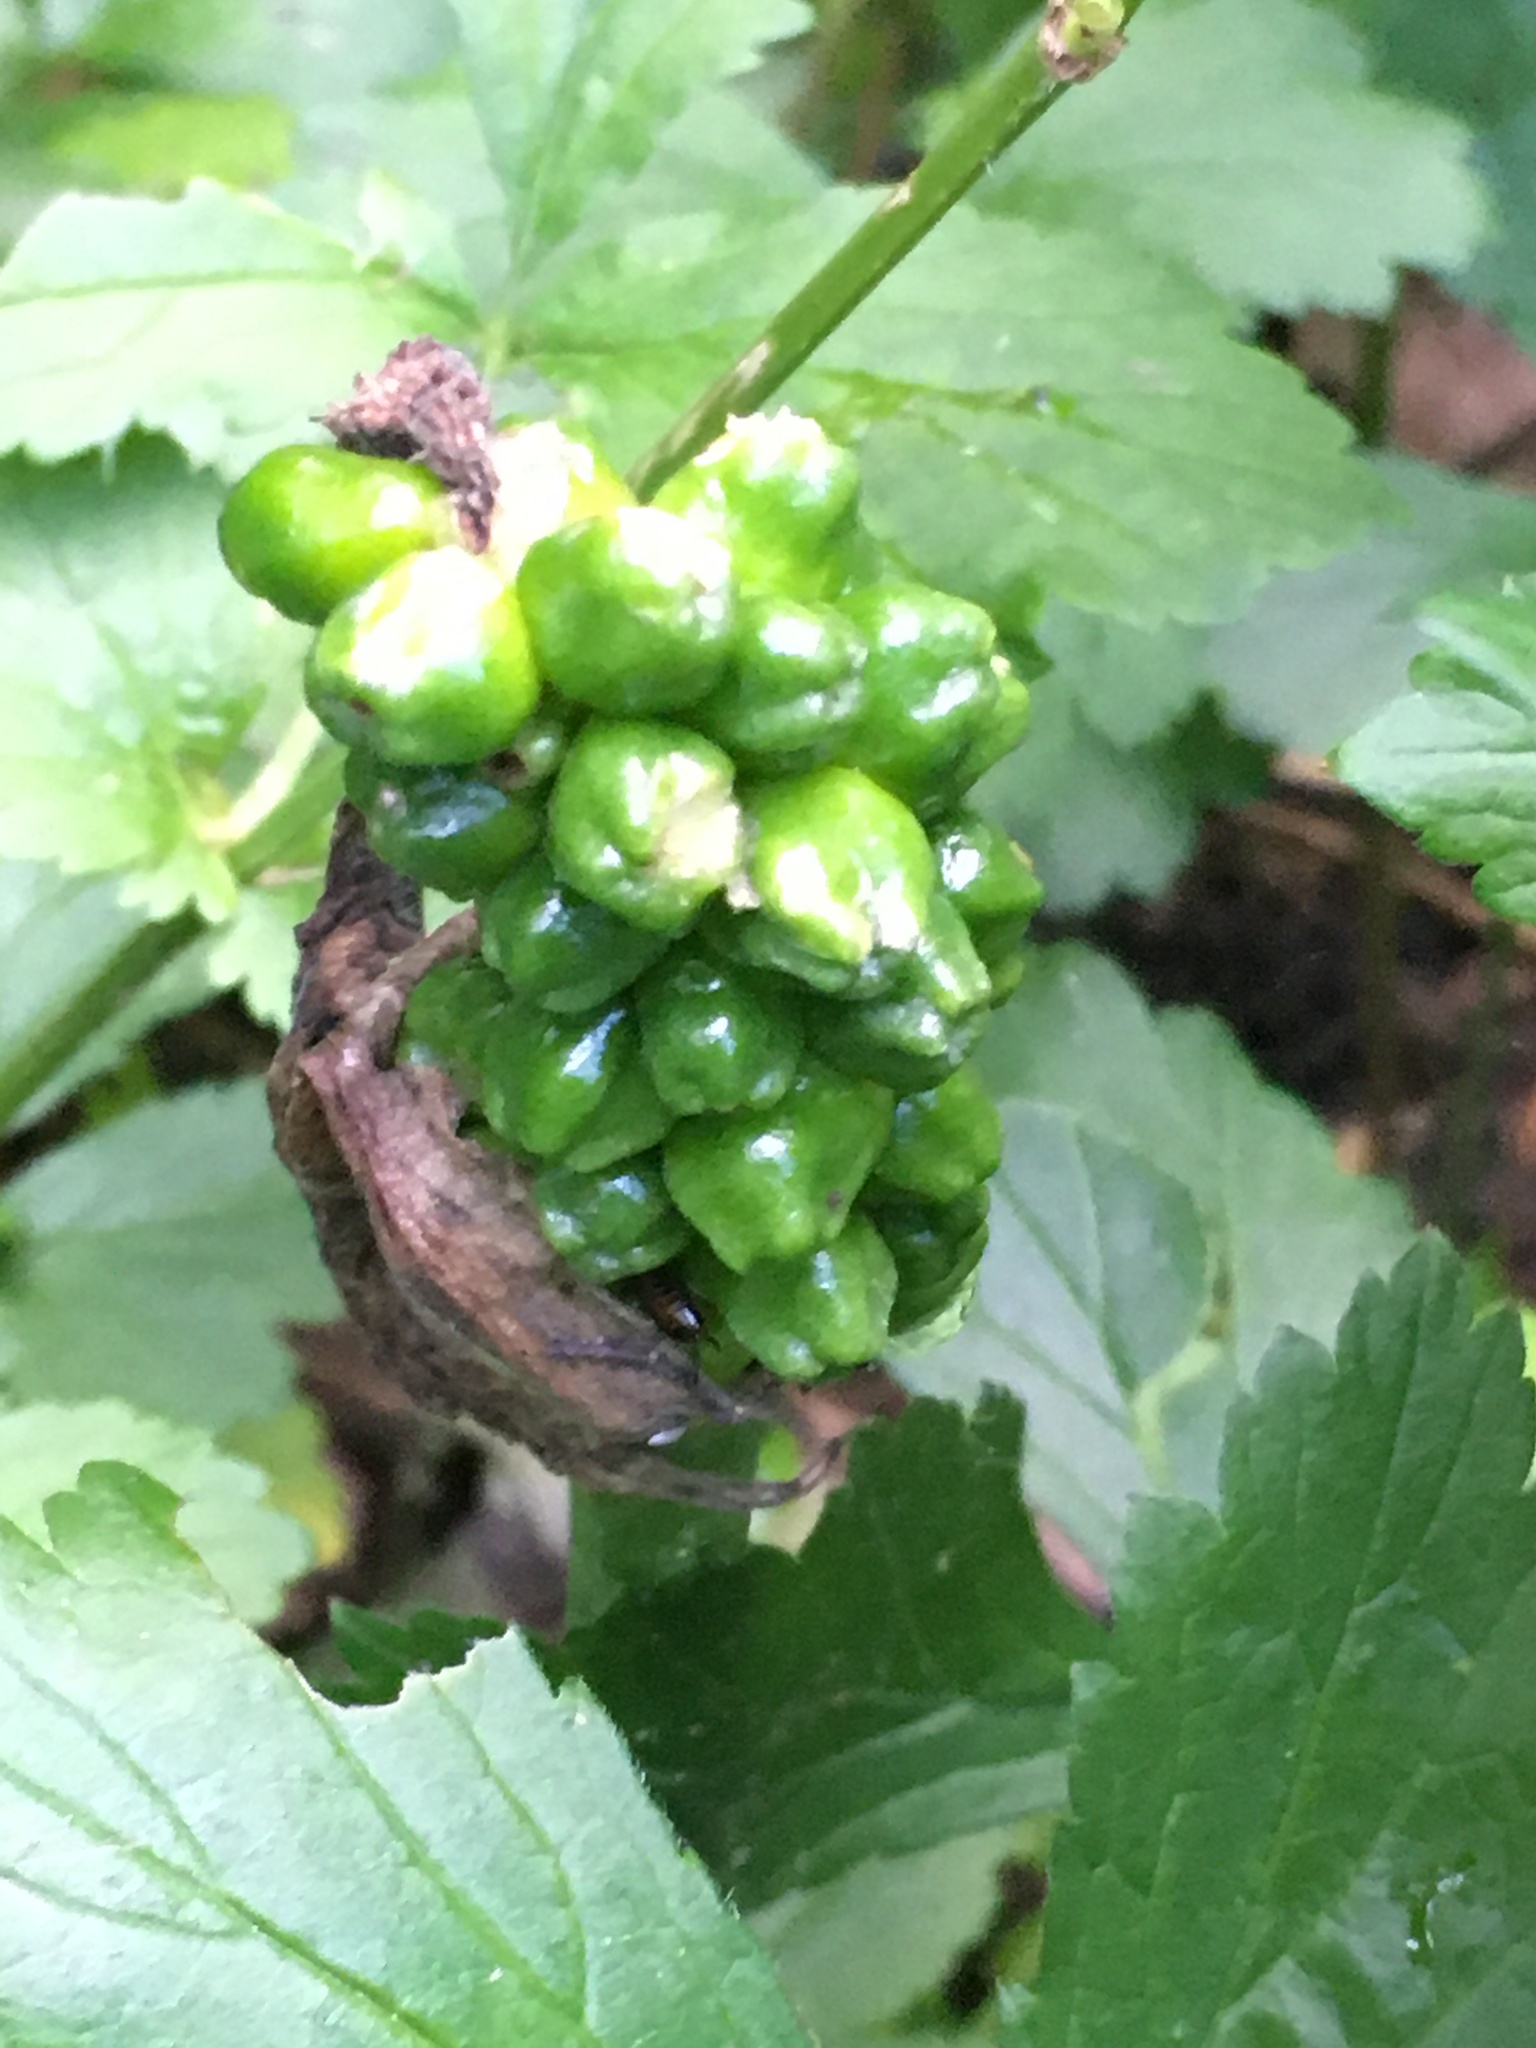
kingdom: Plantae
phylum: Tracheophyta
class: Liliopsida
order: Alismatales
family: Araceae
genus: Arum
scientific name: Arum cylindraceum
